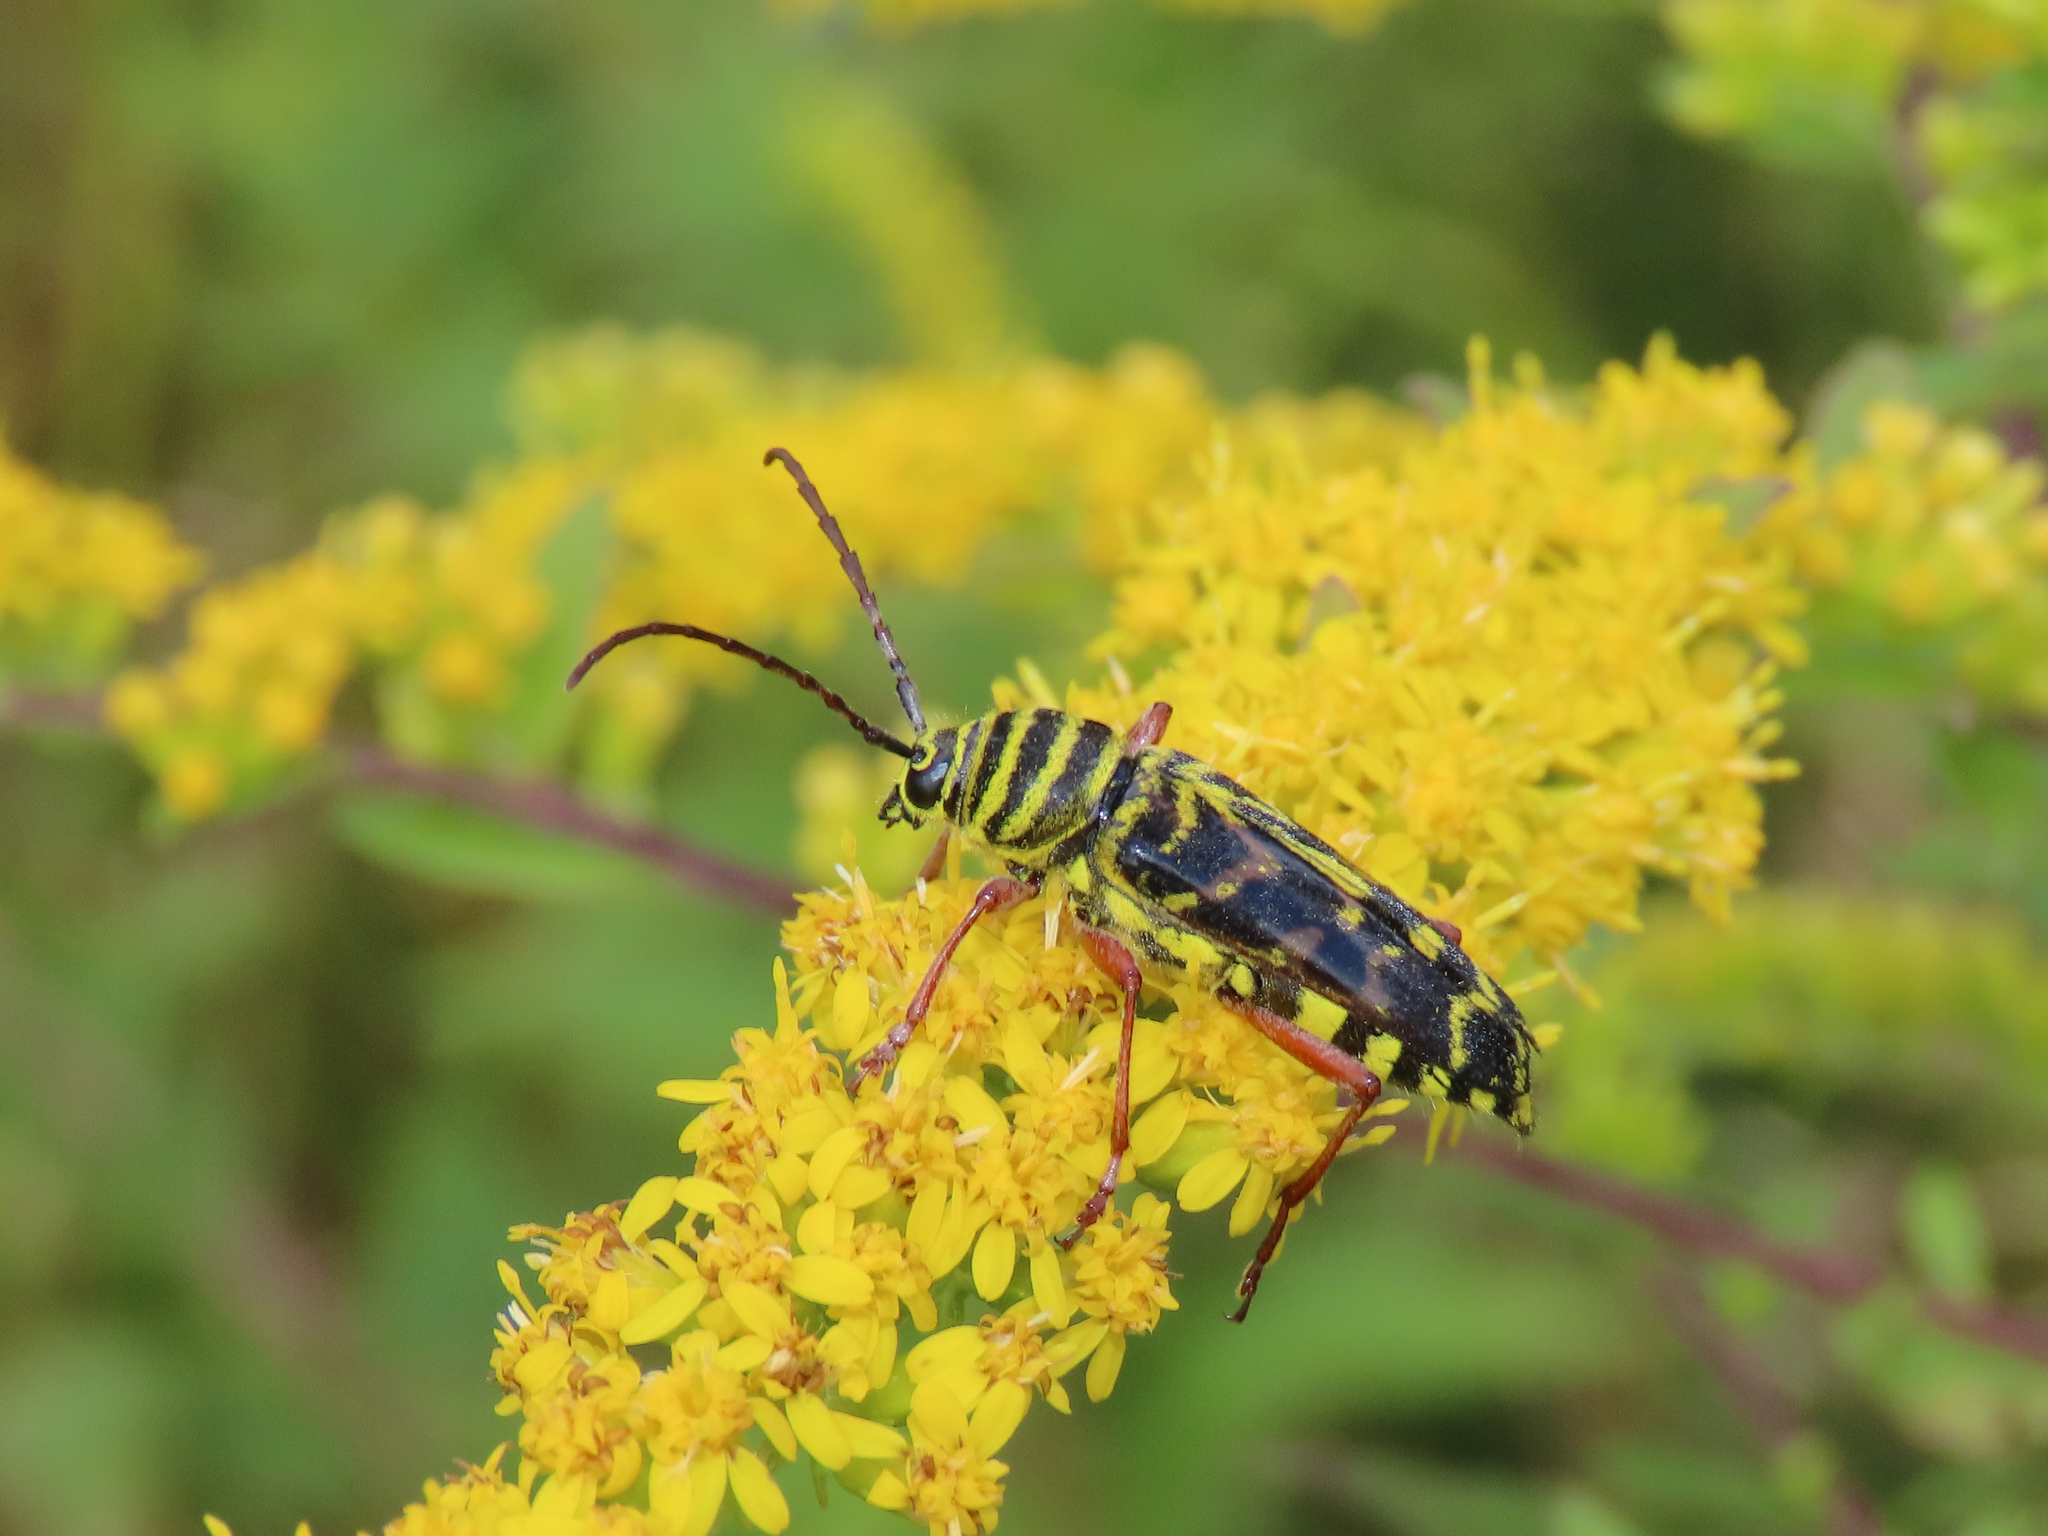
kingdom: Animalia
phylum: Arthropoda
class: Insecta
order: Coleoptera
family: Cerambycidae
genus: Megacyllene
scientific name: Megacyllene robiniae
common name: Locust borer
